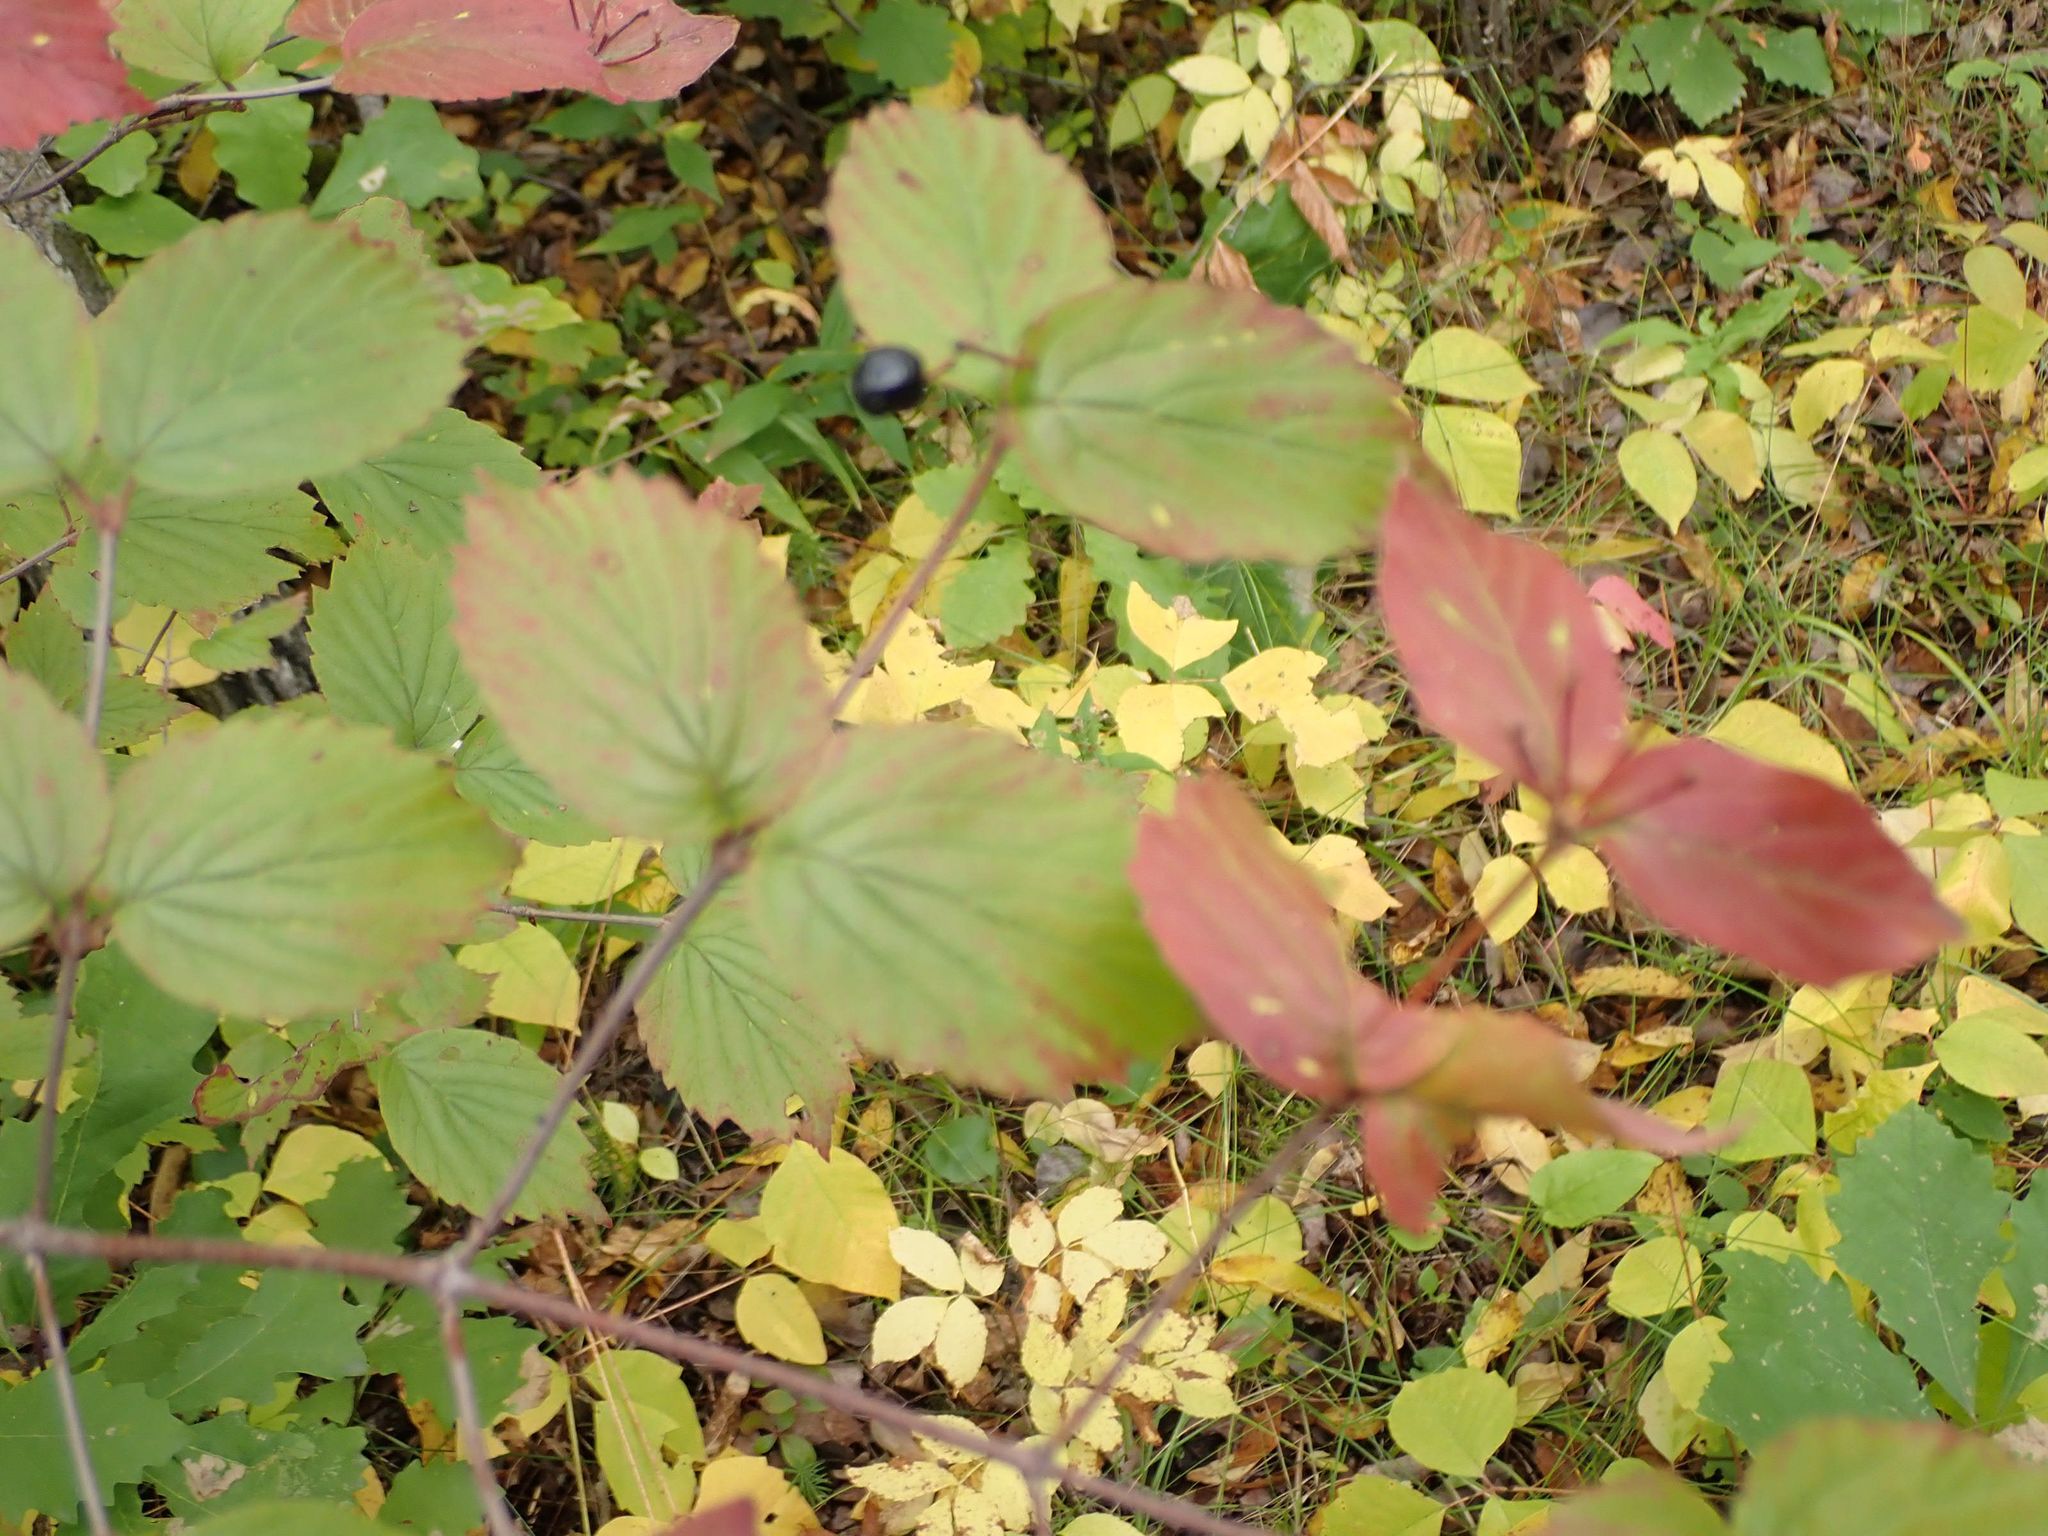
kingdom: Plantae
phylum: Tracheophyta
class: Magnoliopsida
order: Dipsacales
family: Viburnaceae
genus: Viburnum
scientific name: Viburnum rafinesqueanum
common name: Downy arrow-wood
